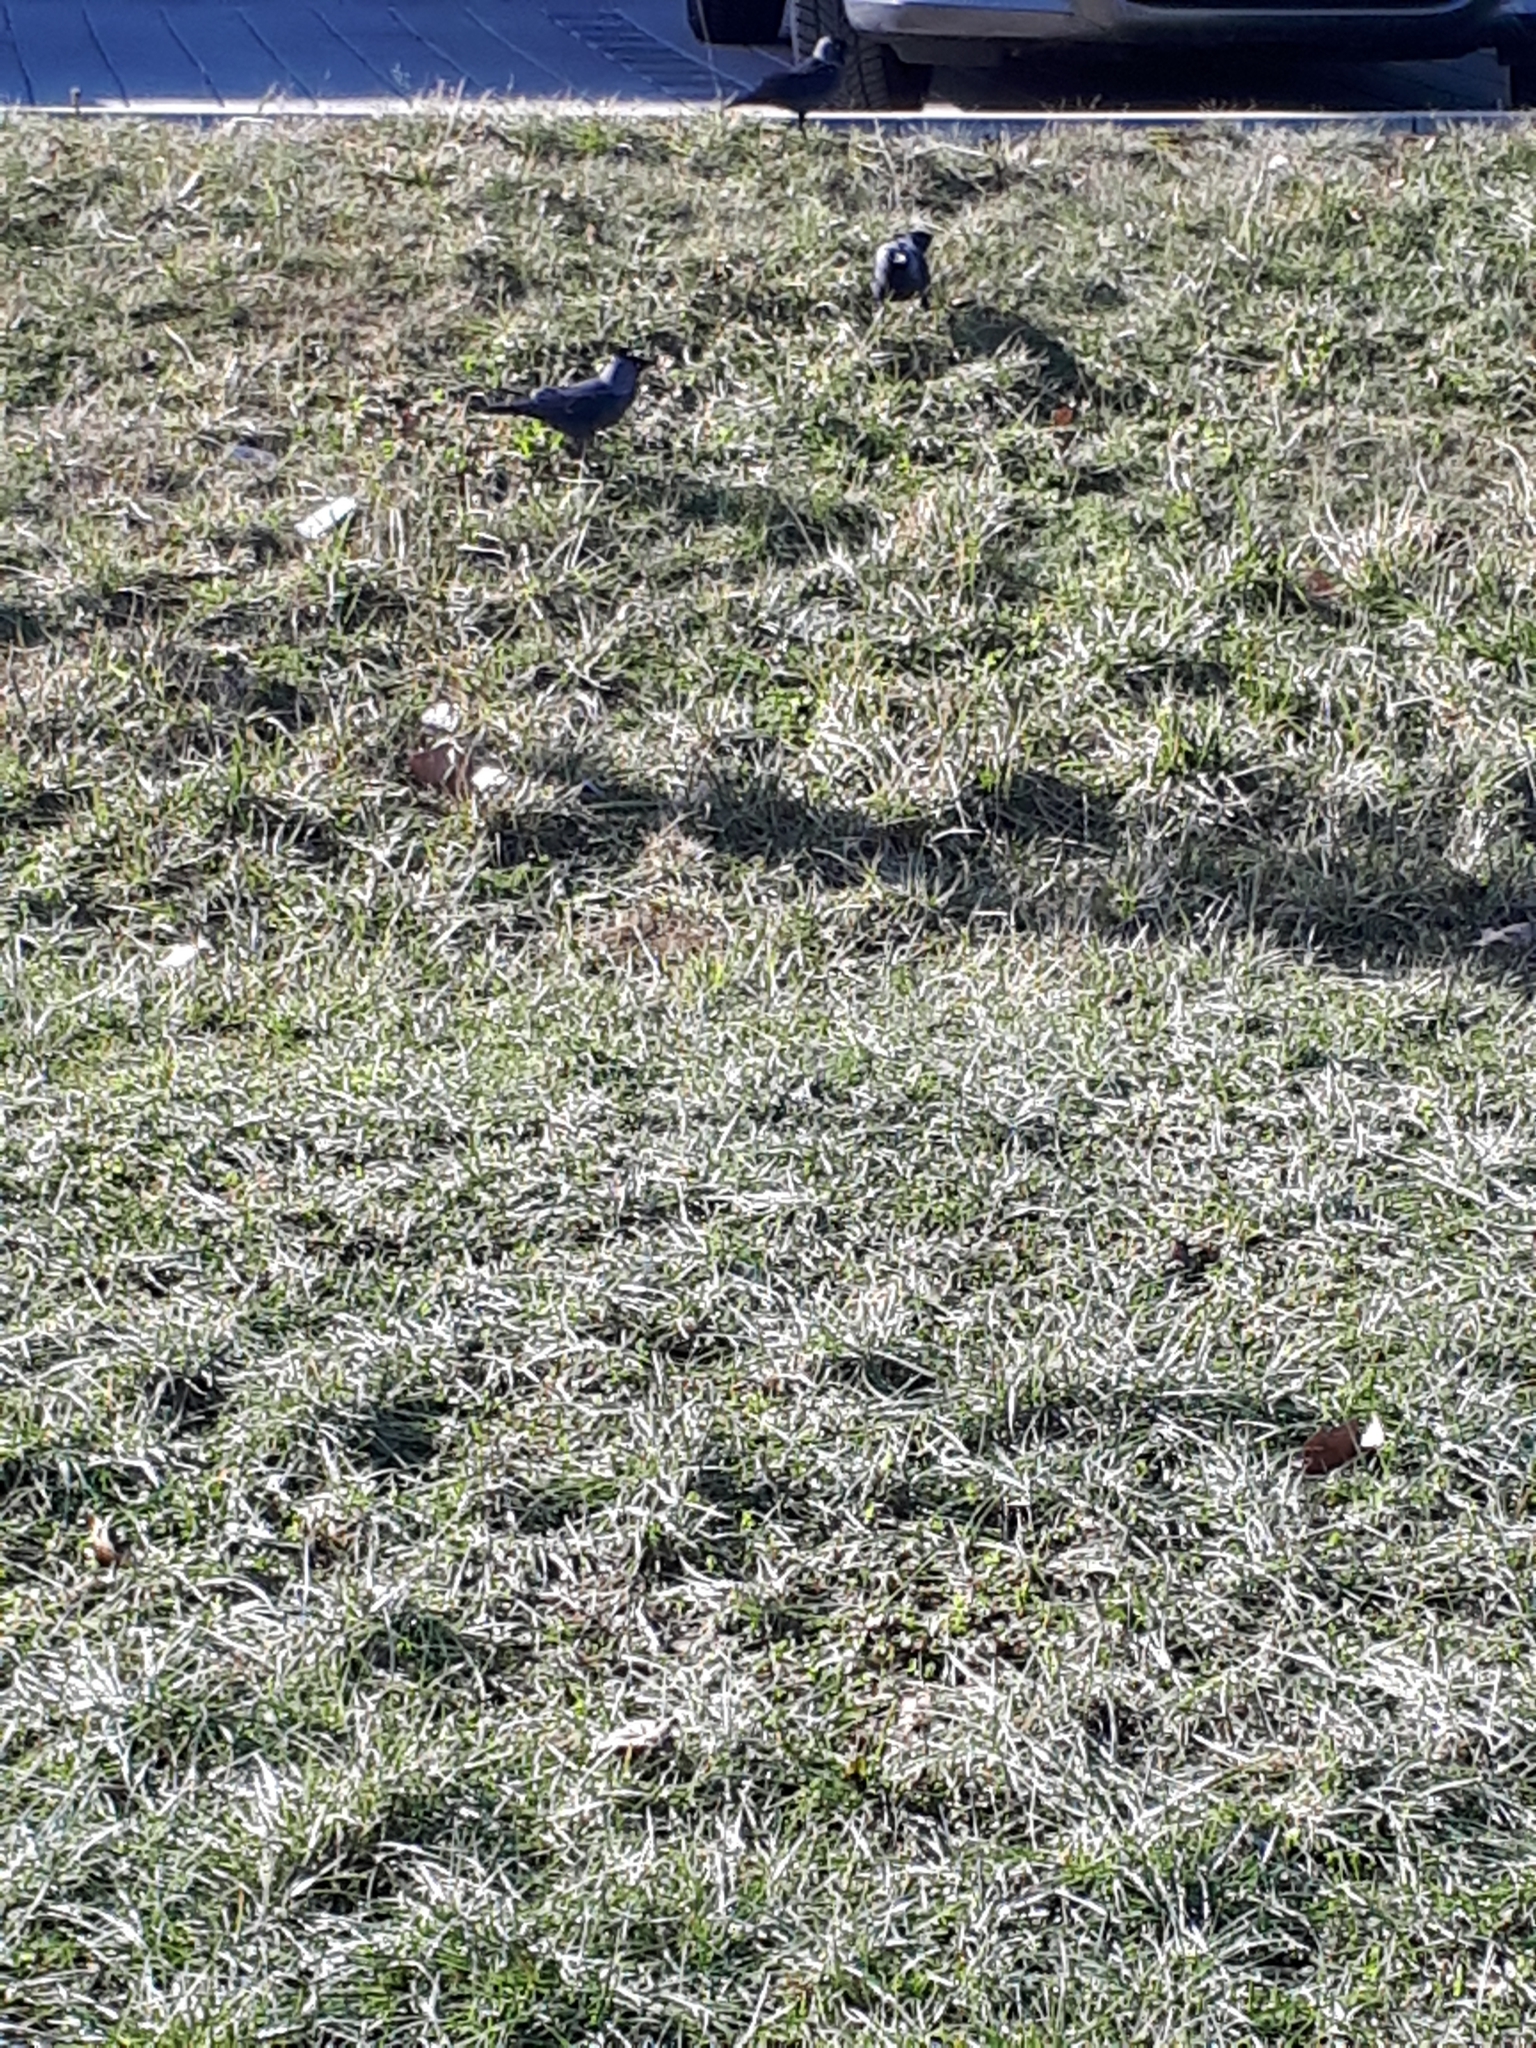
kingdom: Animalia
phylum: Chordata
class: Aves
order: Passeriformes
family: Corvidae
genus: Coloeus
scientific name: Coloeus monedula
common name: Western jackdaw
